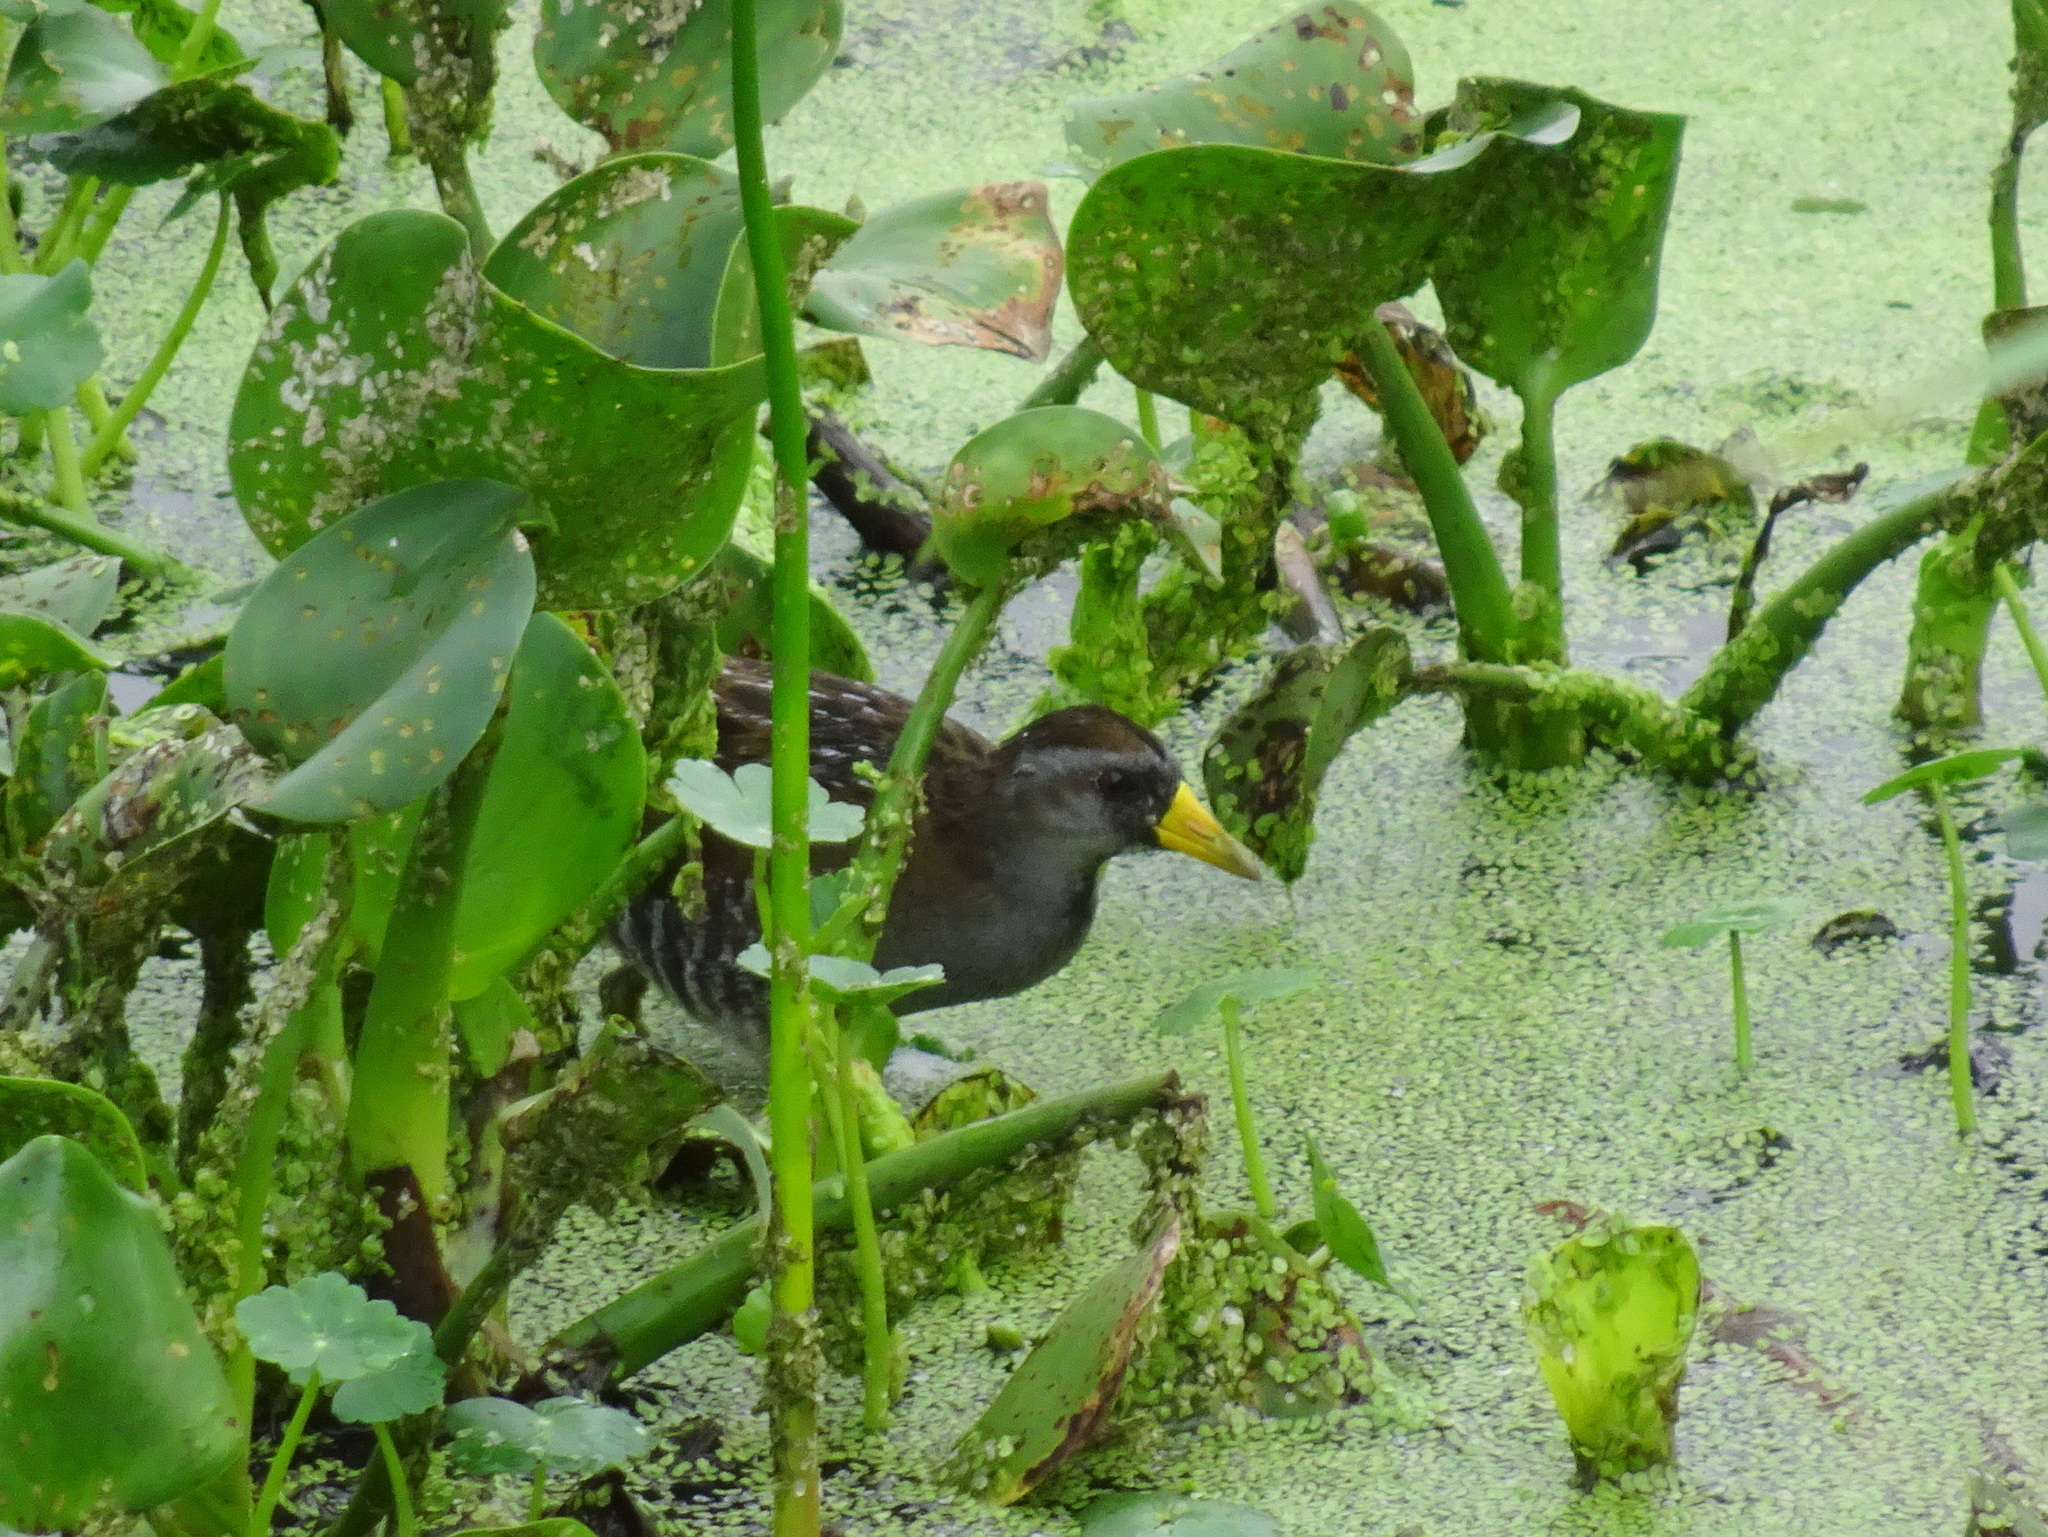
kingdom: Animalia
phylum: Chordata
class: Aves
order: Gruiformes
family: Rallidae
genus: Porzana
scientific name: Porzana carolina
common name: Sora
